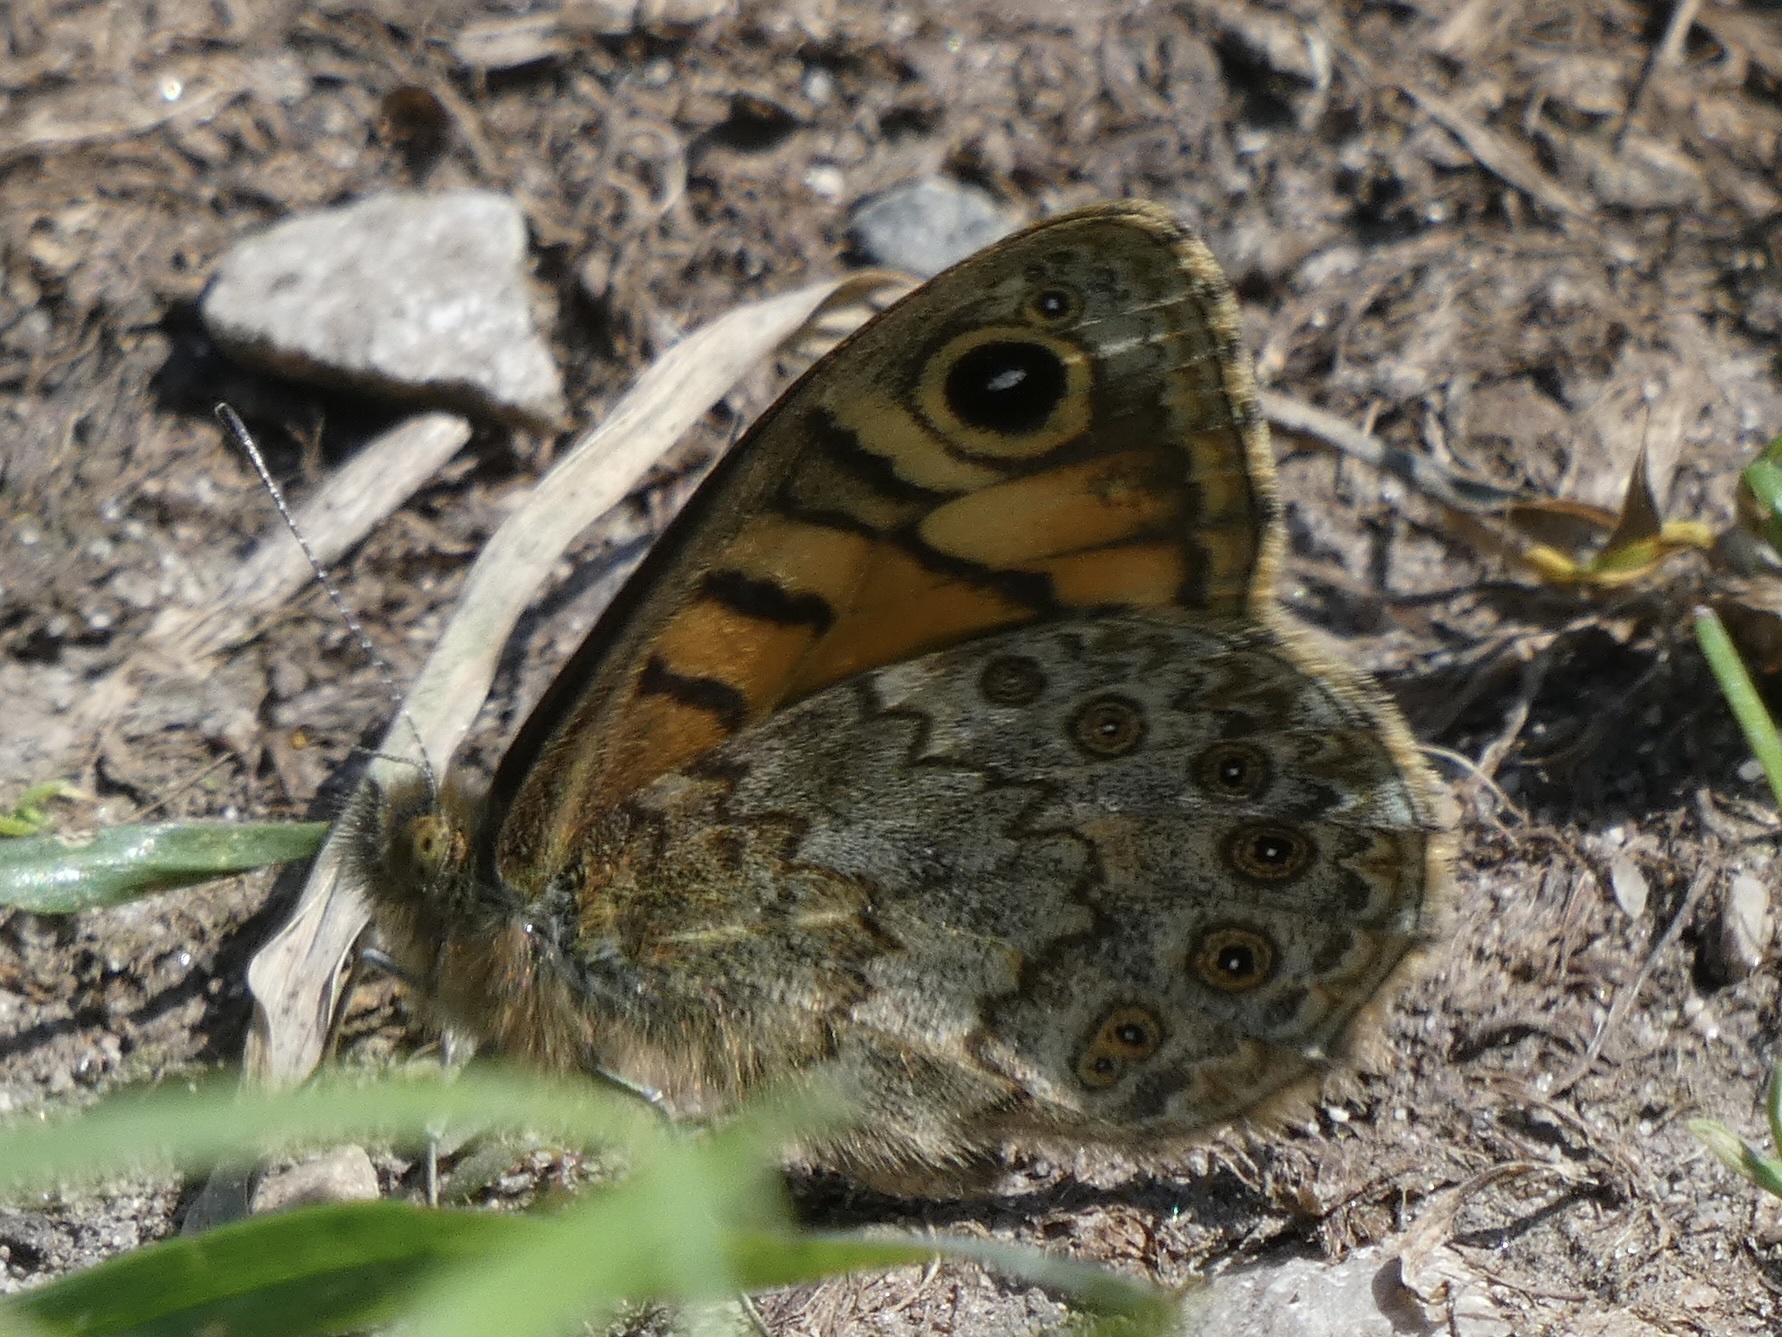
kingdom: Animalia
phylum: Arthropoda
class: Insecta
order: Lepidoptera
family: Nymphalidae
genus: Pararge
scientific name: Pararge Lasiommata megera
